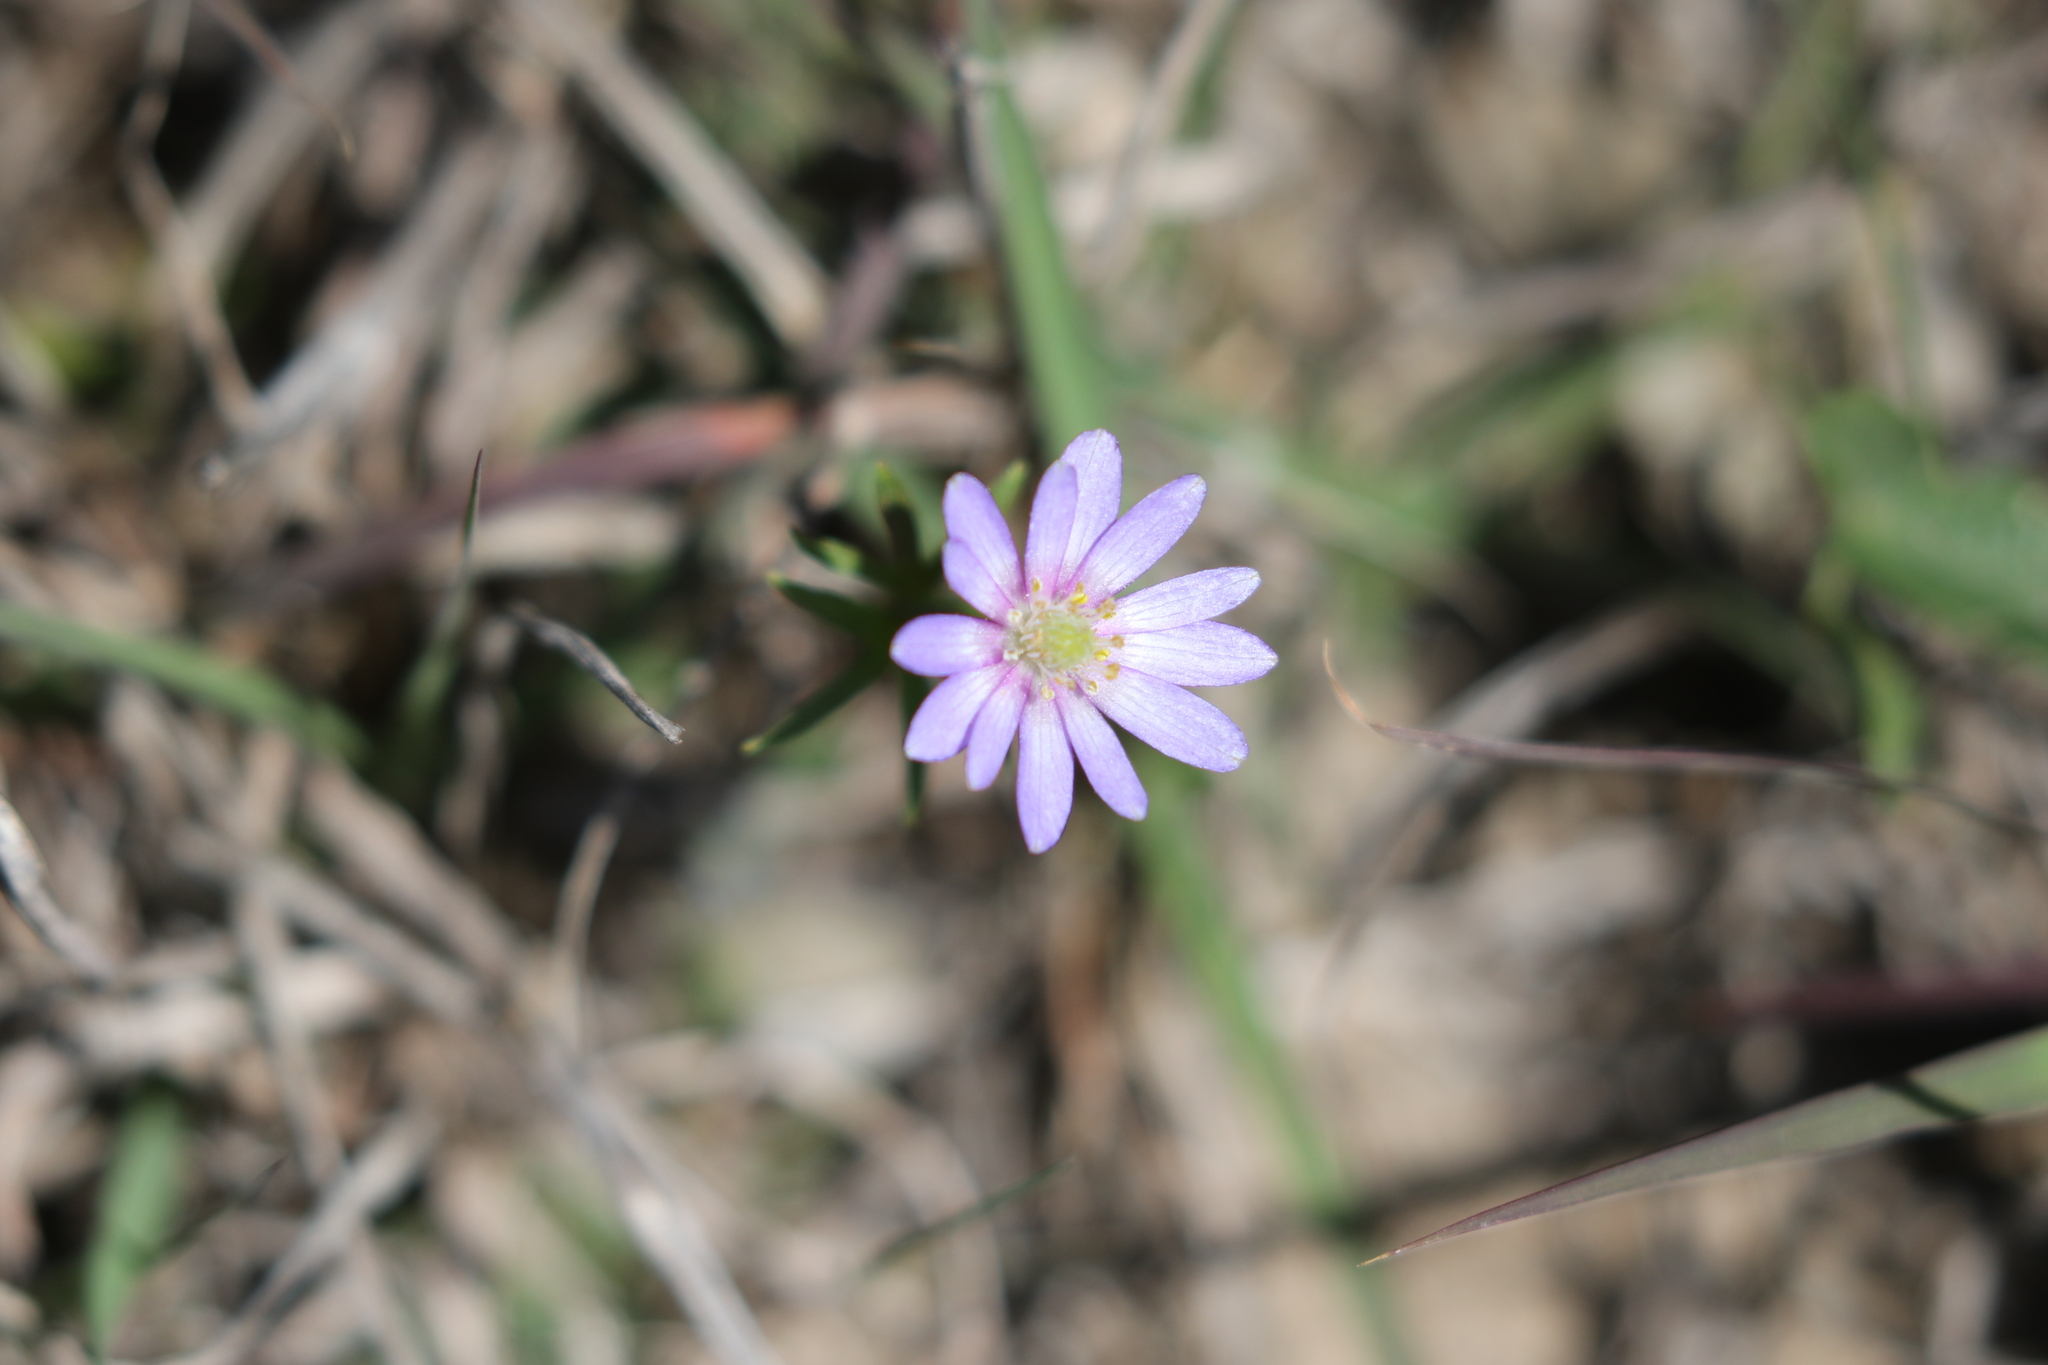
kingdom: Plantae
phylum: Tracheophyta
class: Magnoliopsida
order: Ranunculales
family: Ranunculaceae
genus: Anemone
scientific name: Anemone berlandieri
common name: Ten-petal anemone
